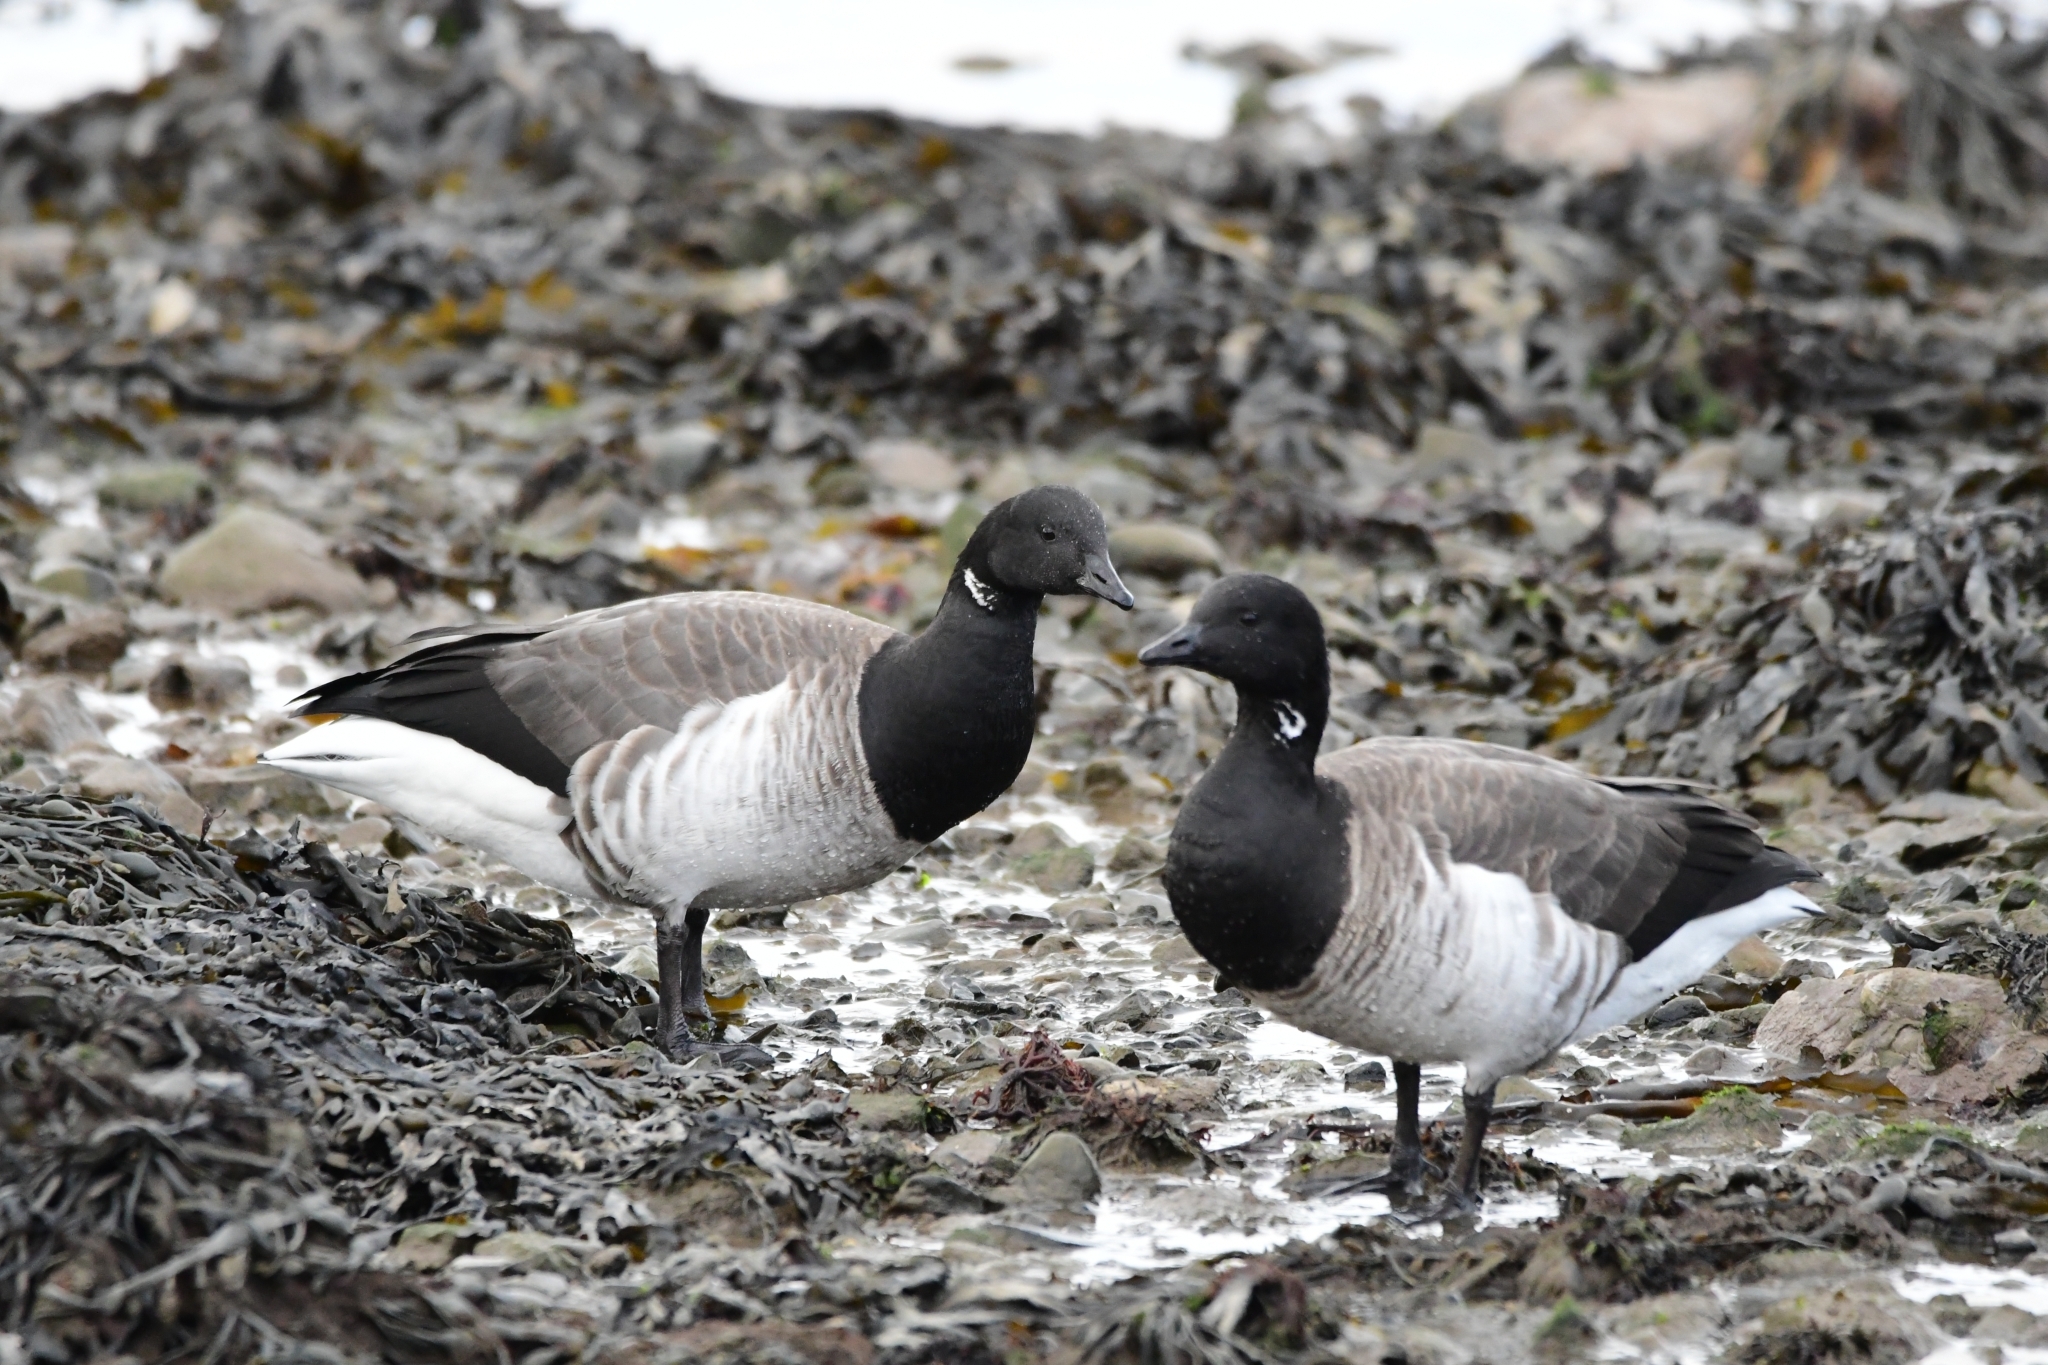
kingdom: Animalia
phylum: Chordata
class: Aves
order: Anseriformes
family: Anatidae
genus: Branta
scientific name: Branta bernicla
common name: Brant goose
